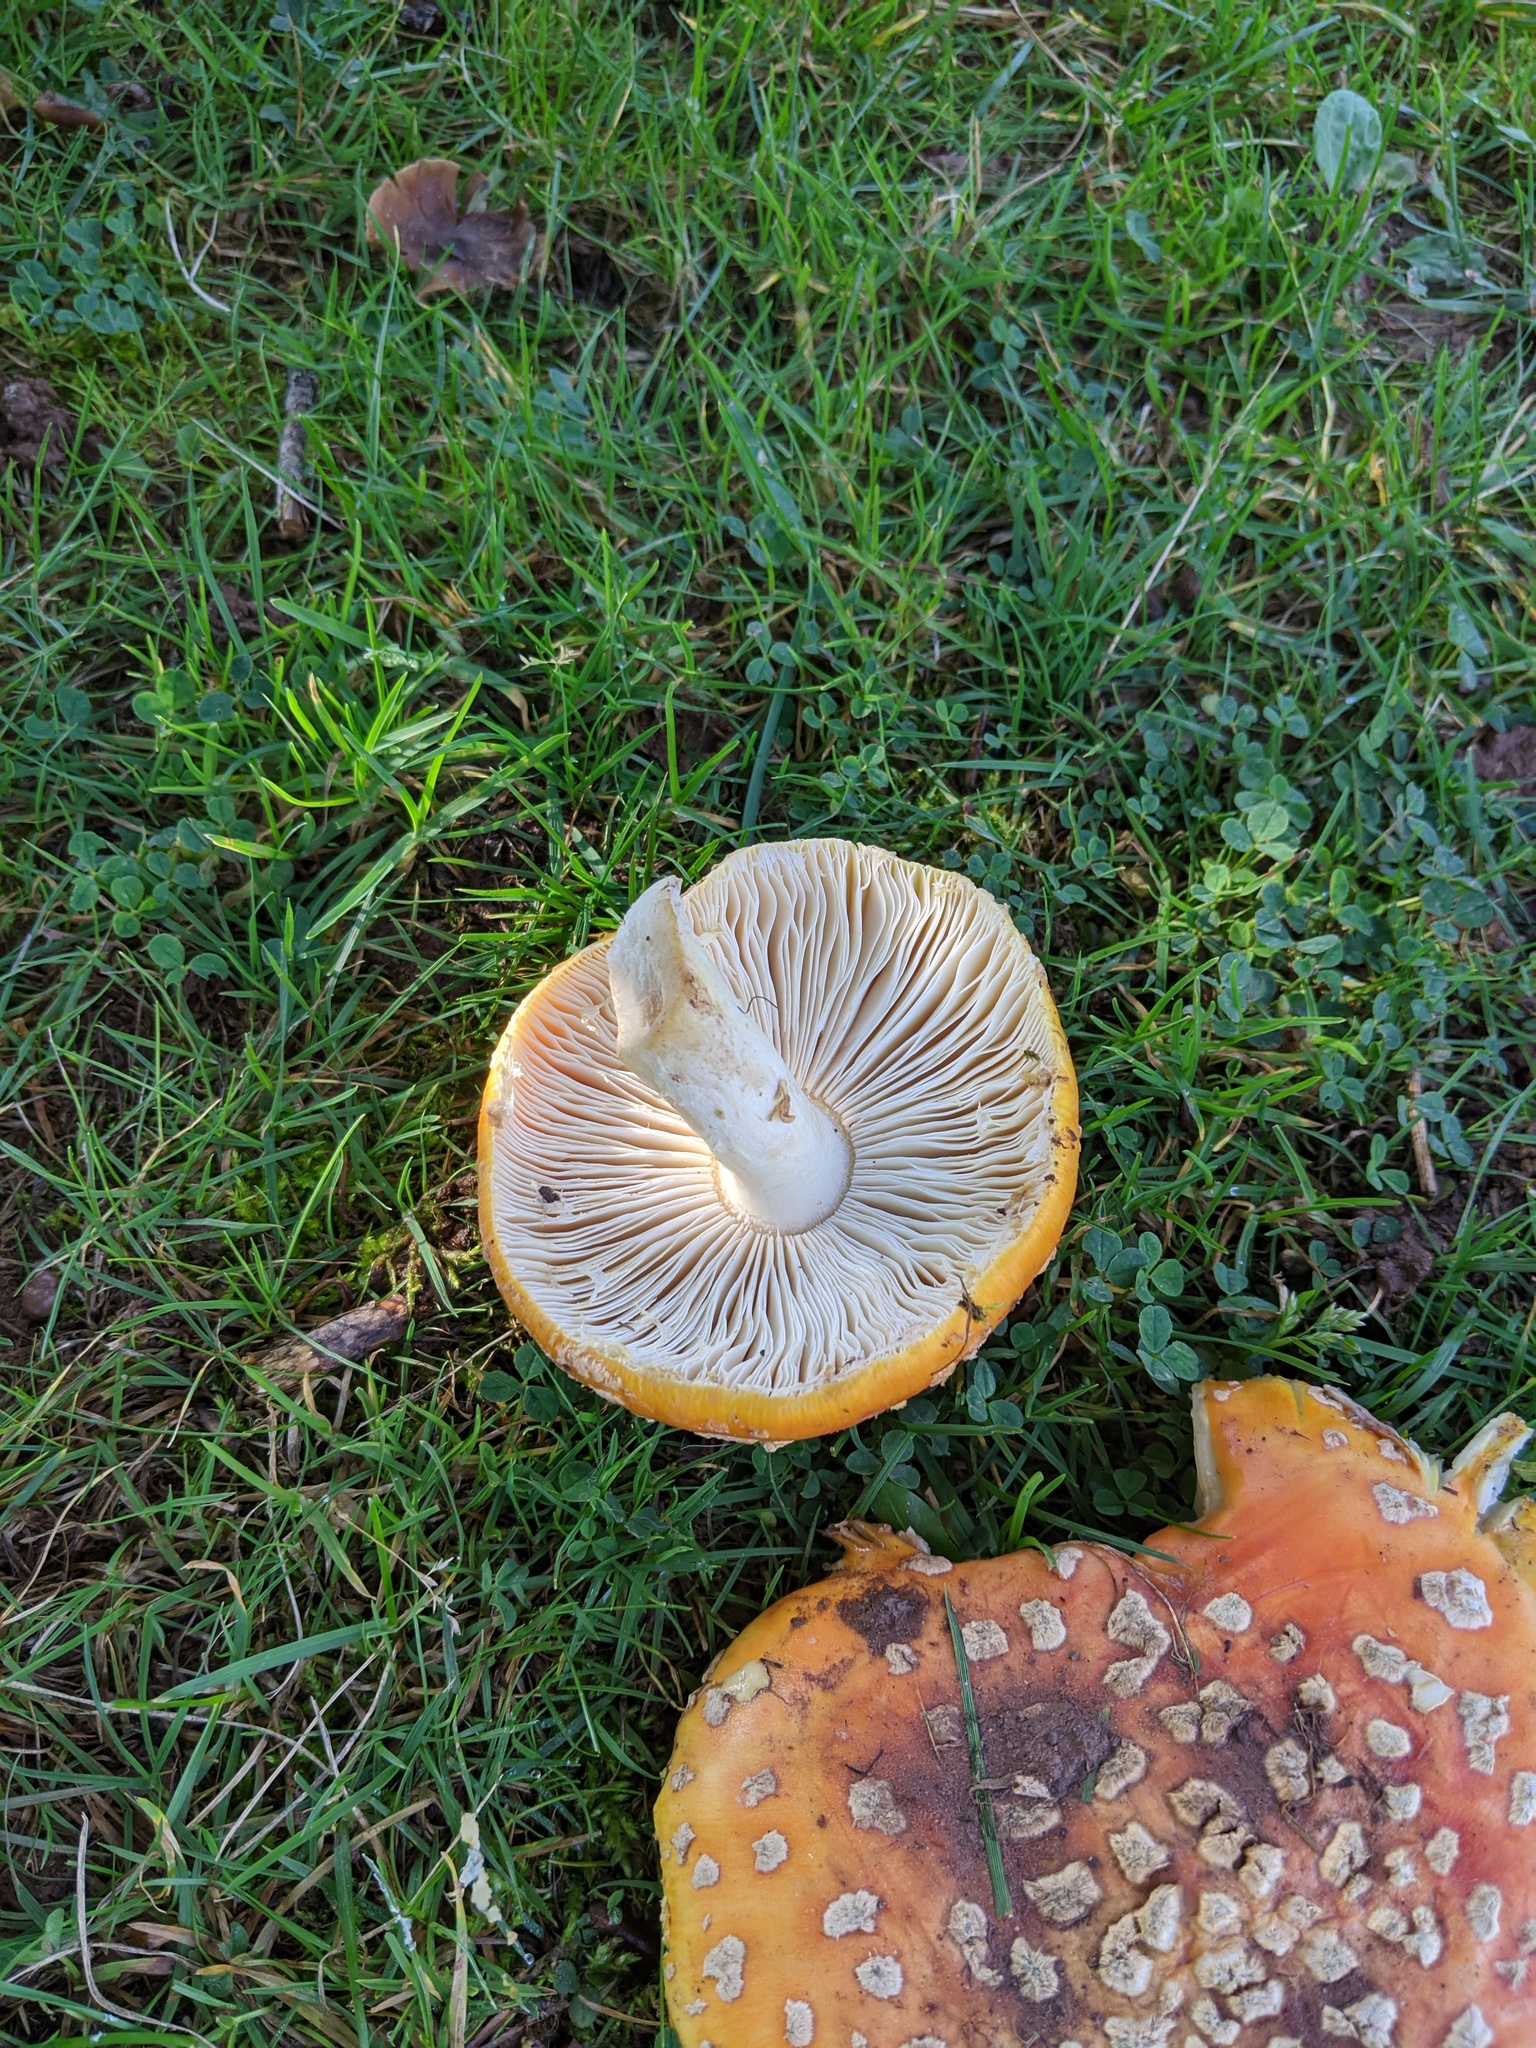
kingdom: Fungi
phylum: Basidiomycota
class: Agaricomycetes
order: Agaricales
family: Amanitaceae
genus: Amanita
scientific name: Amanita muscaria
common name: Fly agaric
